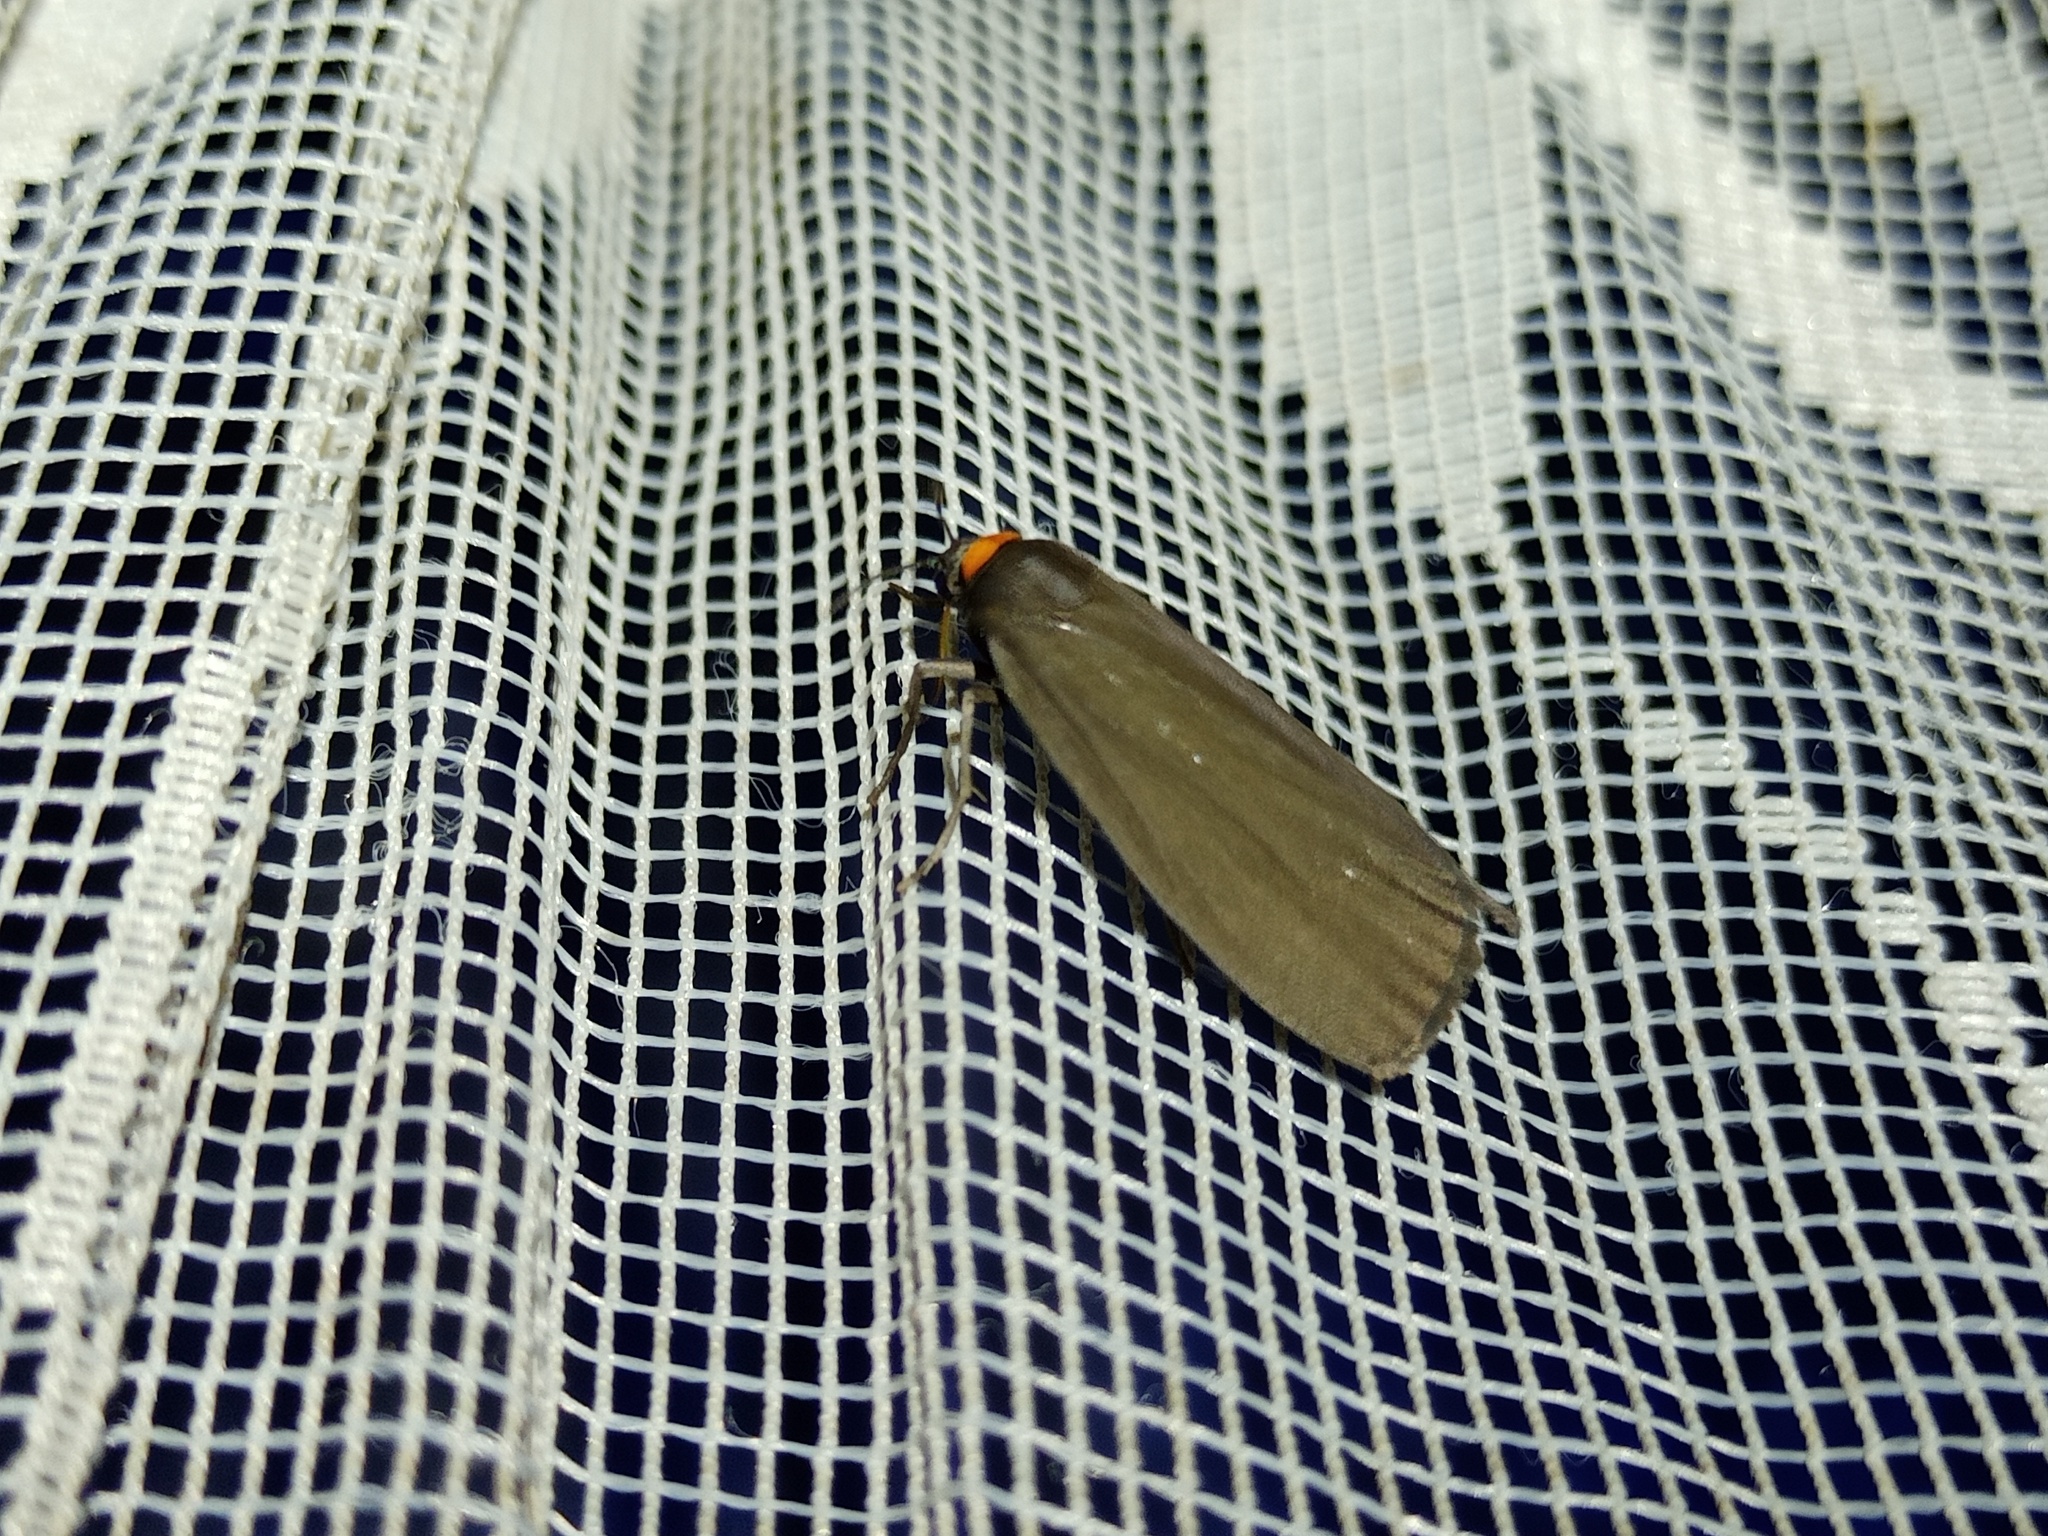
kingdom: Animalia
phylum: Arthropoda
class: Insecta
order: Lepidoptera
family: Erebidae
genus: Atolmis
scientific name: Atolmis rubricollis
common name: Red-necked footman
